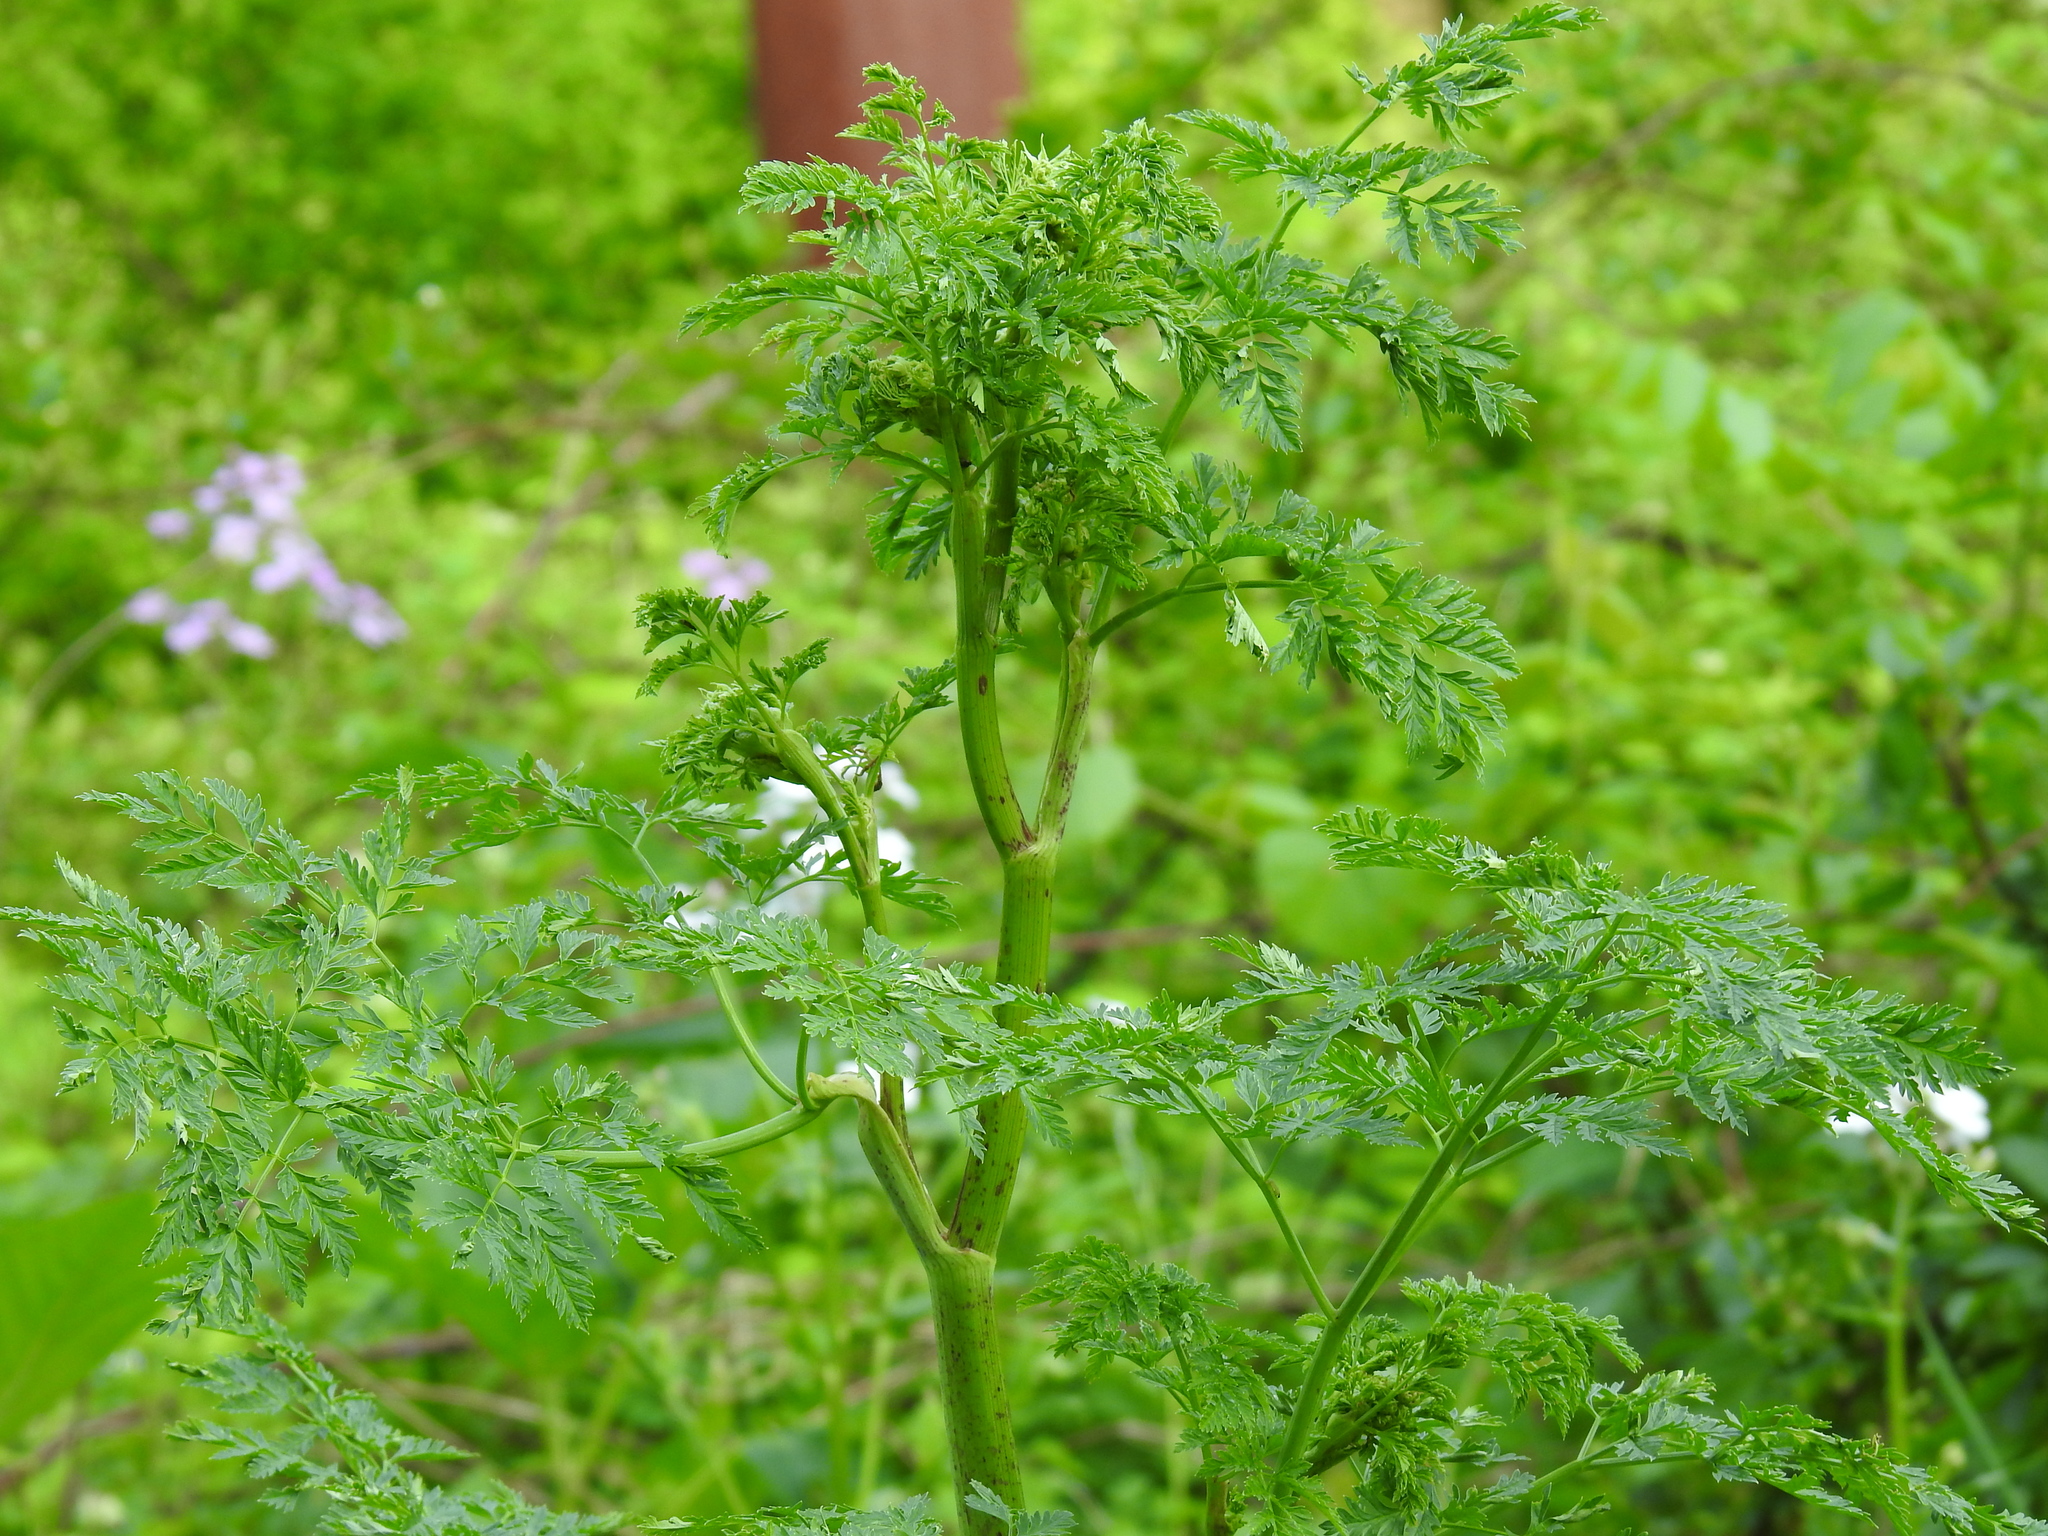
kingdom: Plantae
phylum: Tracheophyta
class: Magnoliopsida
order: Apiales
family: Apiaceae
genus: Conium
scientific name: Conium maculatum
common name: Hemlock
